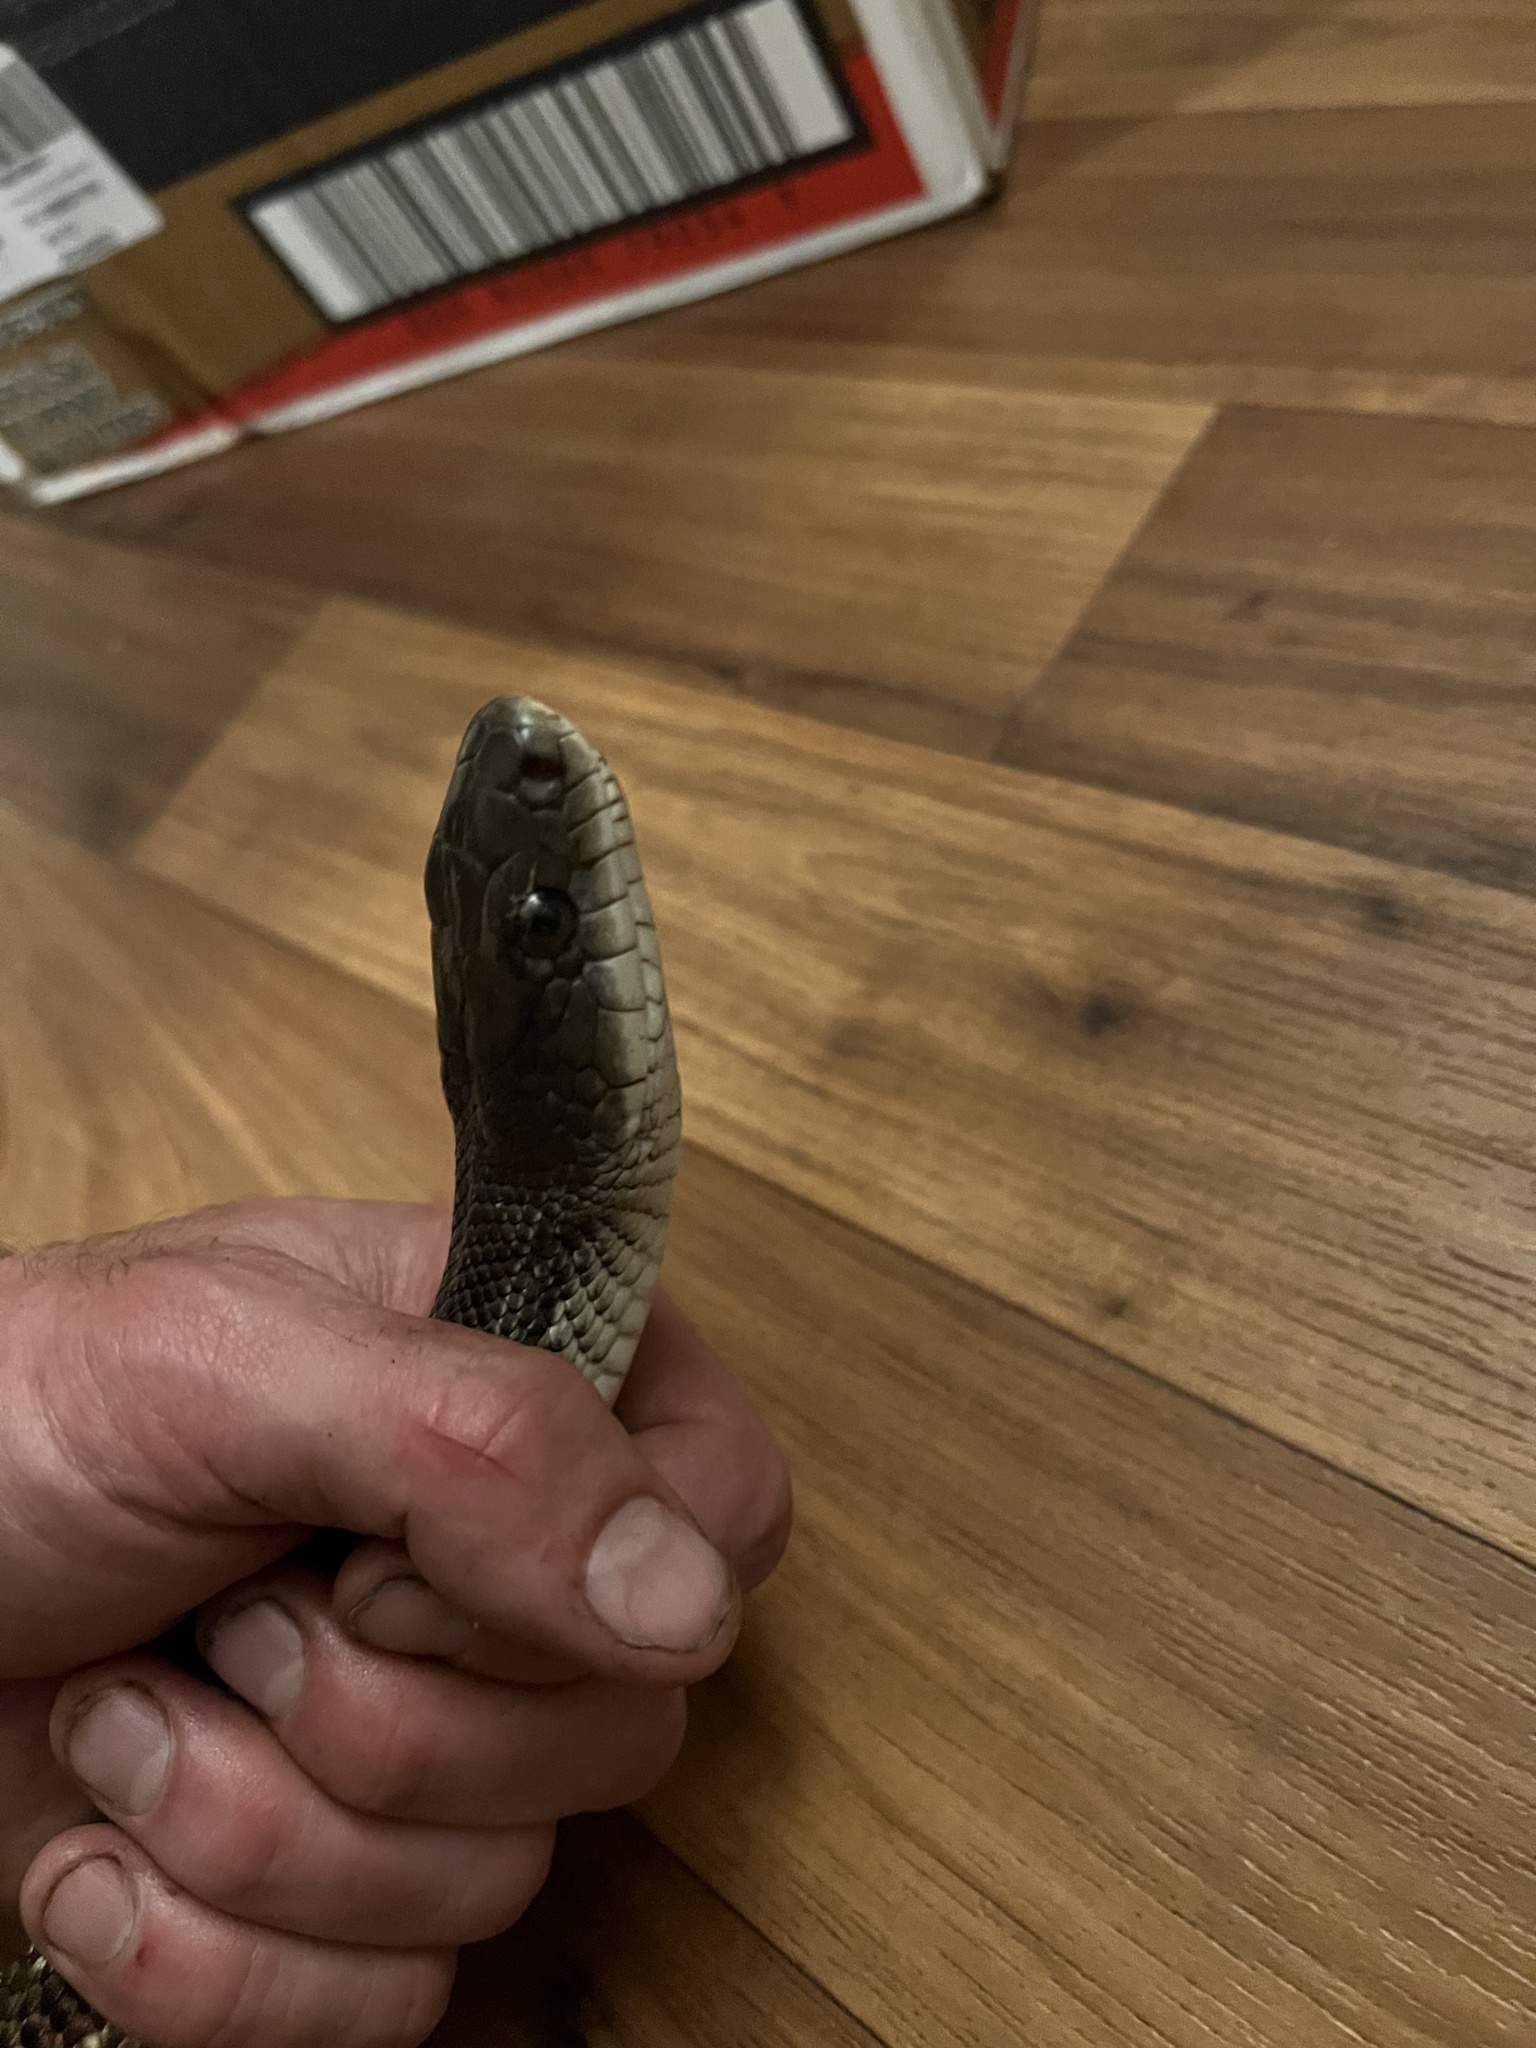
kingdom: Animalia
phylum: Chordata
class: Squamata
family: Colubridae
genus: Pantherophis
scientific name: Pantherophis obsoletus
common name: Black rat snake
